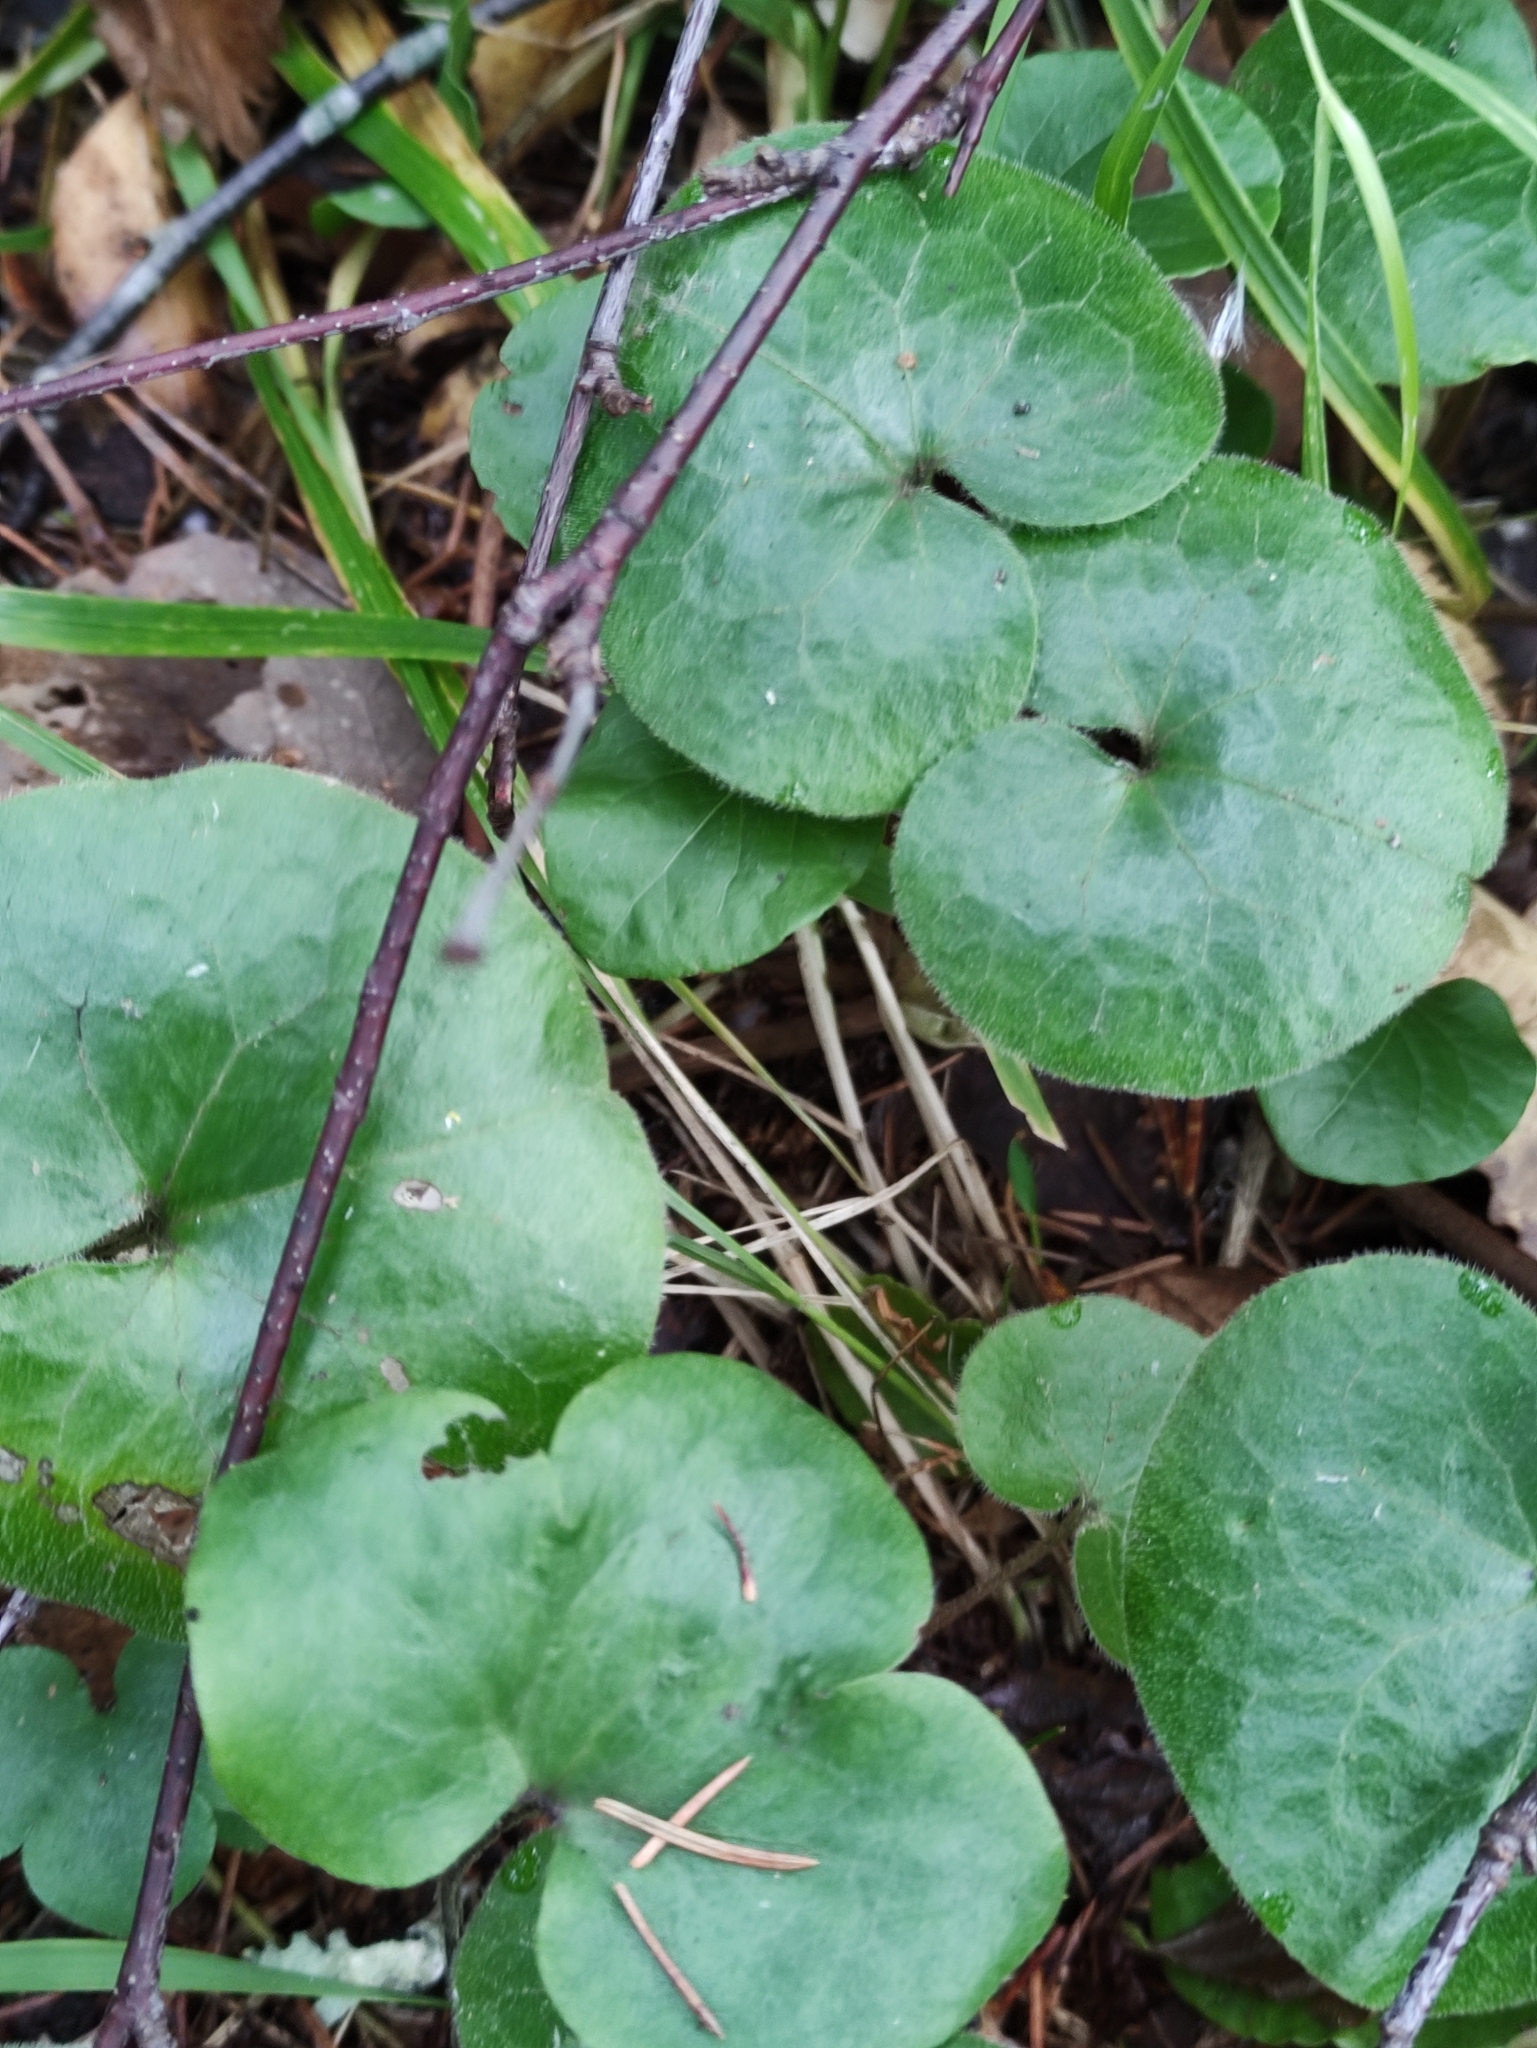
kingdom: Plantae
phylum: Tracheophyta
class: Magnoliopsida
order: Piperales
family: Aristolochiaceae
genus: Asarum
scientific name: Asarum europaeum
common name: Asarabacca
